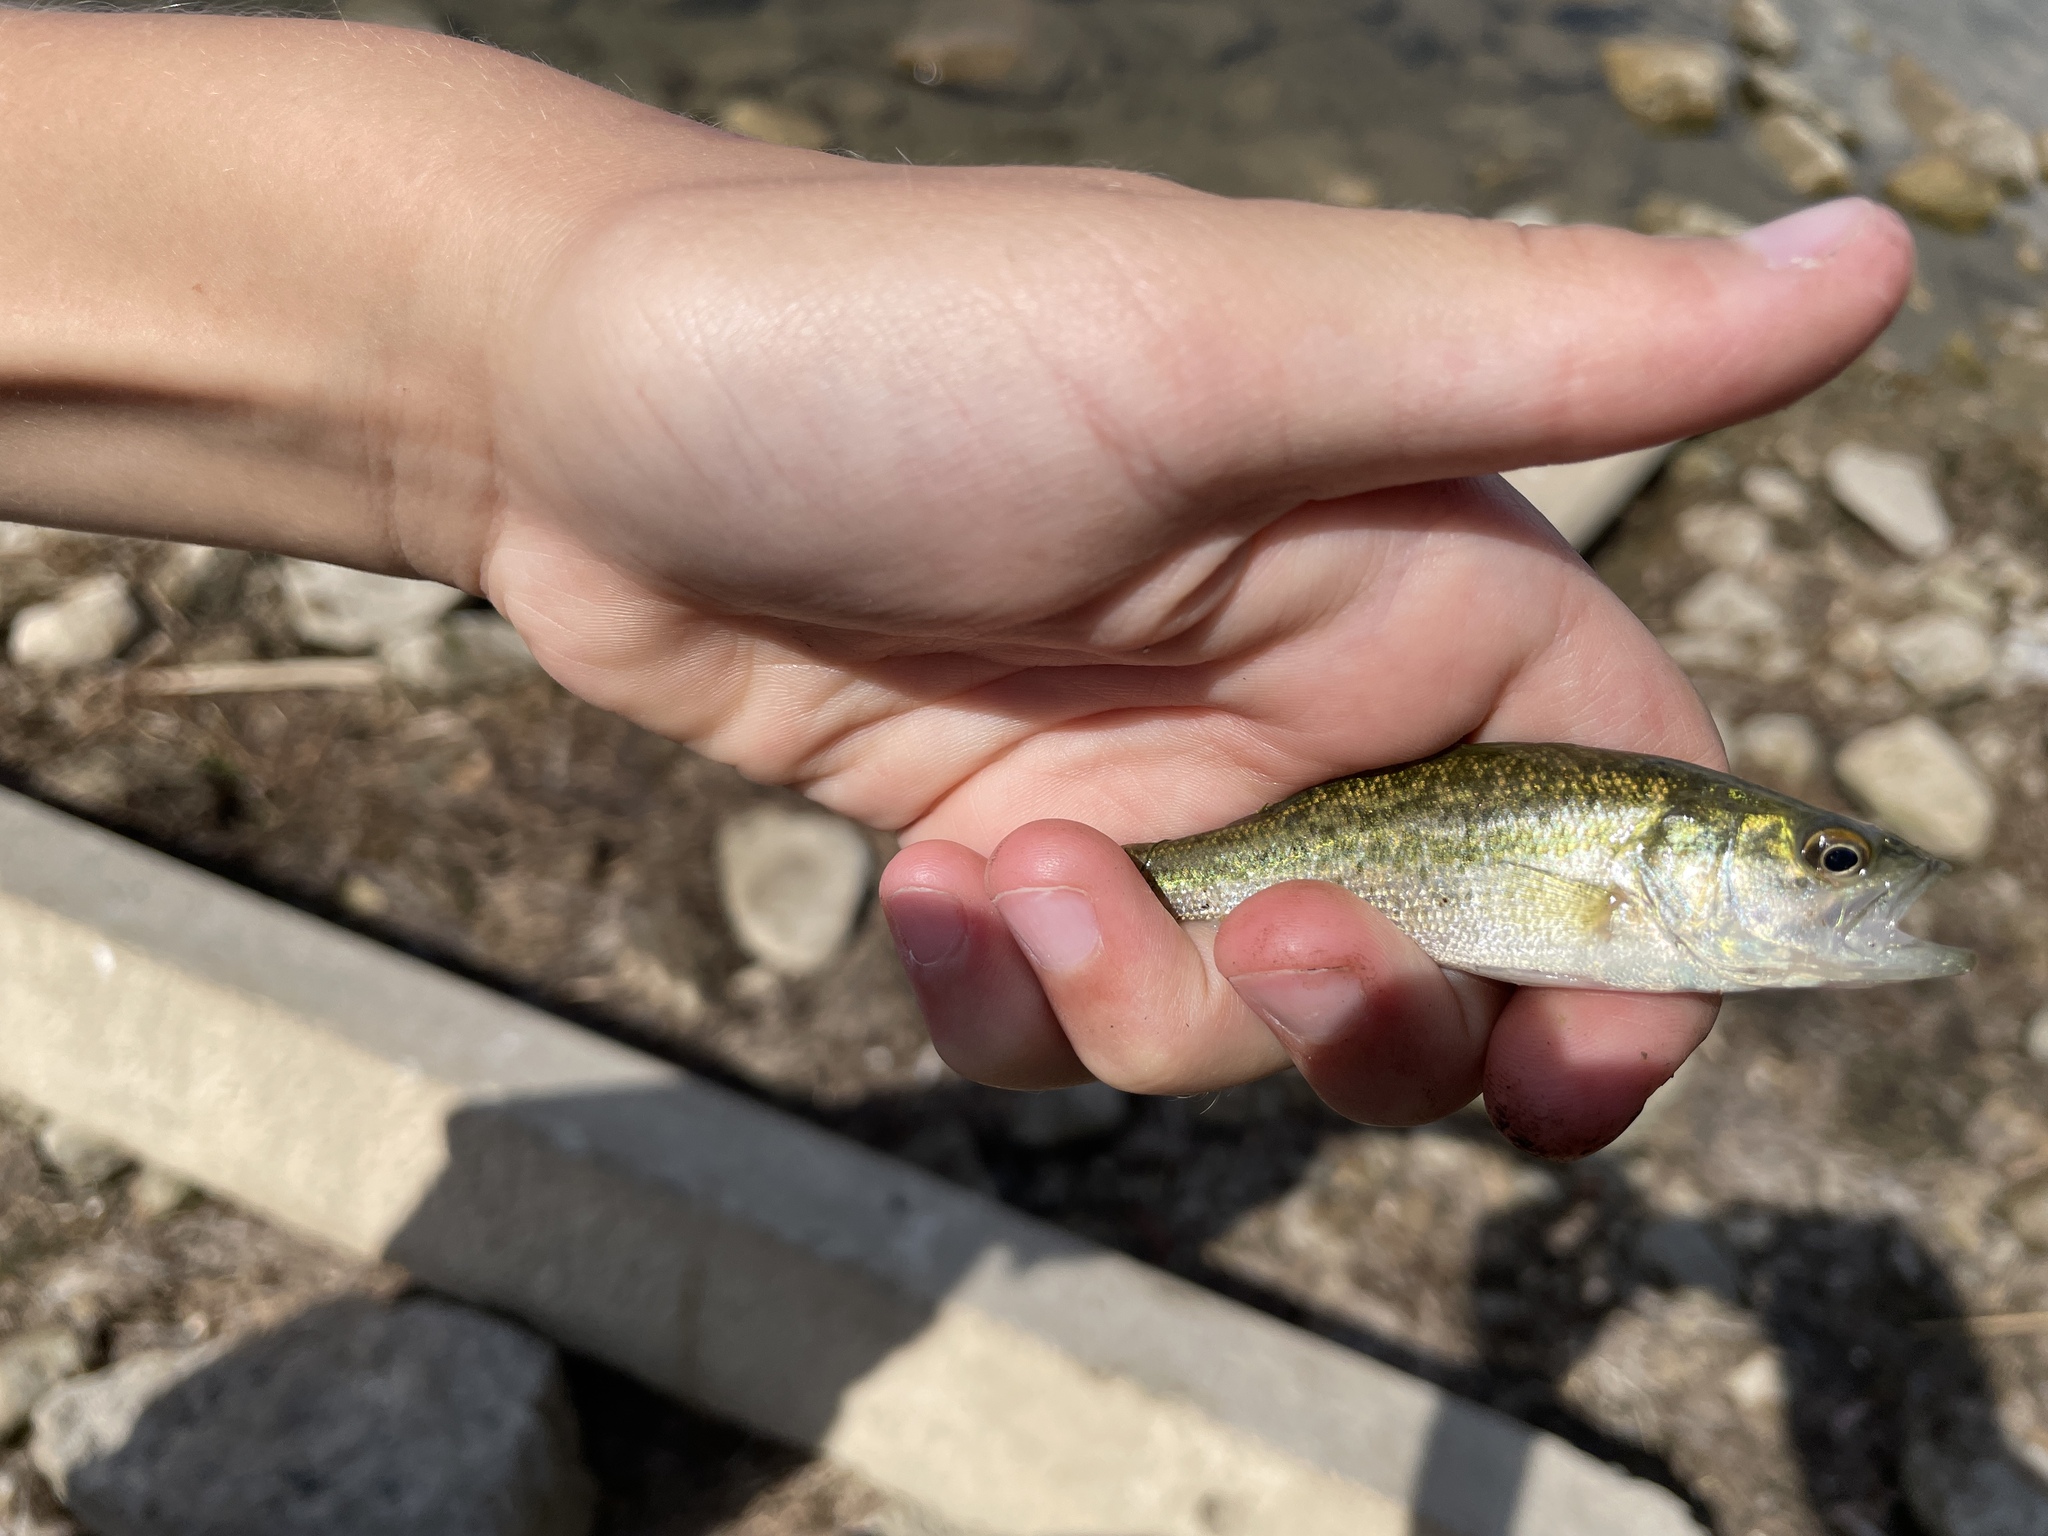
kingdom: Animalia
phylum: Chordata
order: Perciformes
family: Centrarchidae
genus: Micropterus
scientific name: Micropterus
